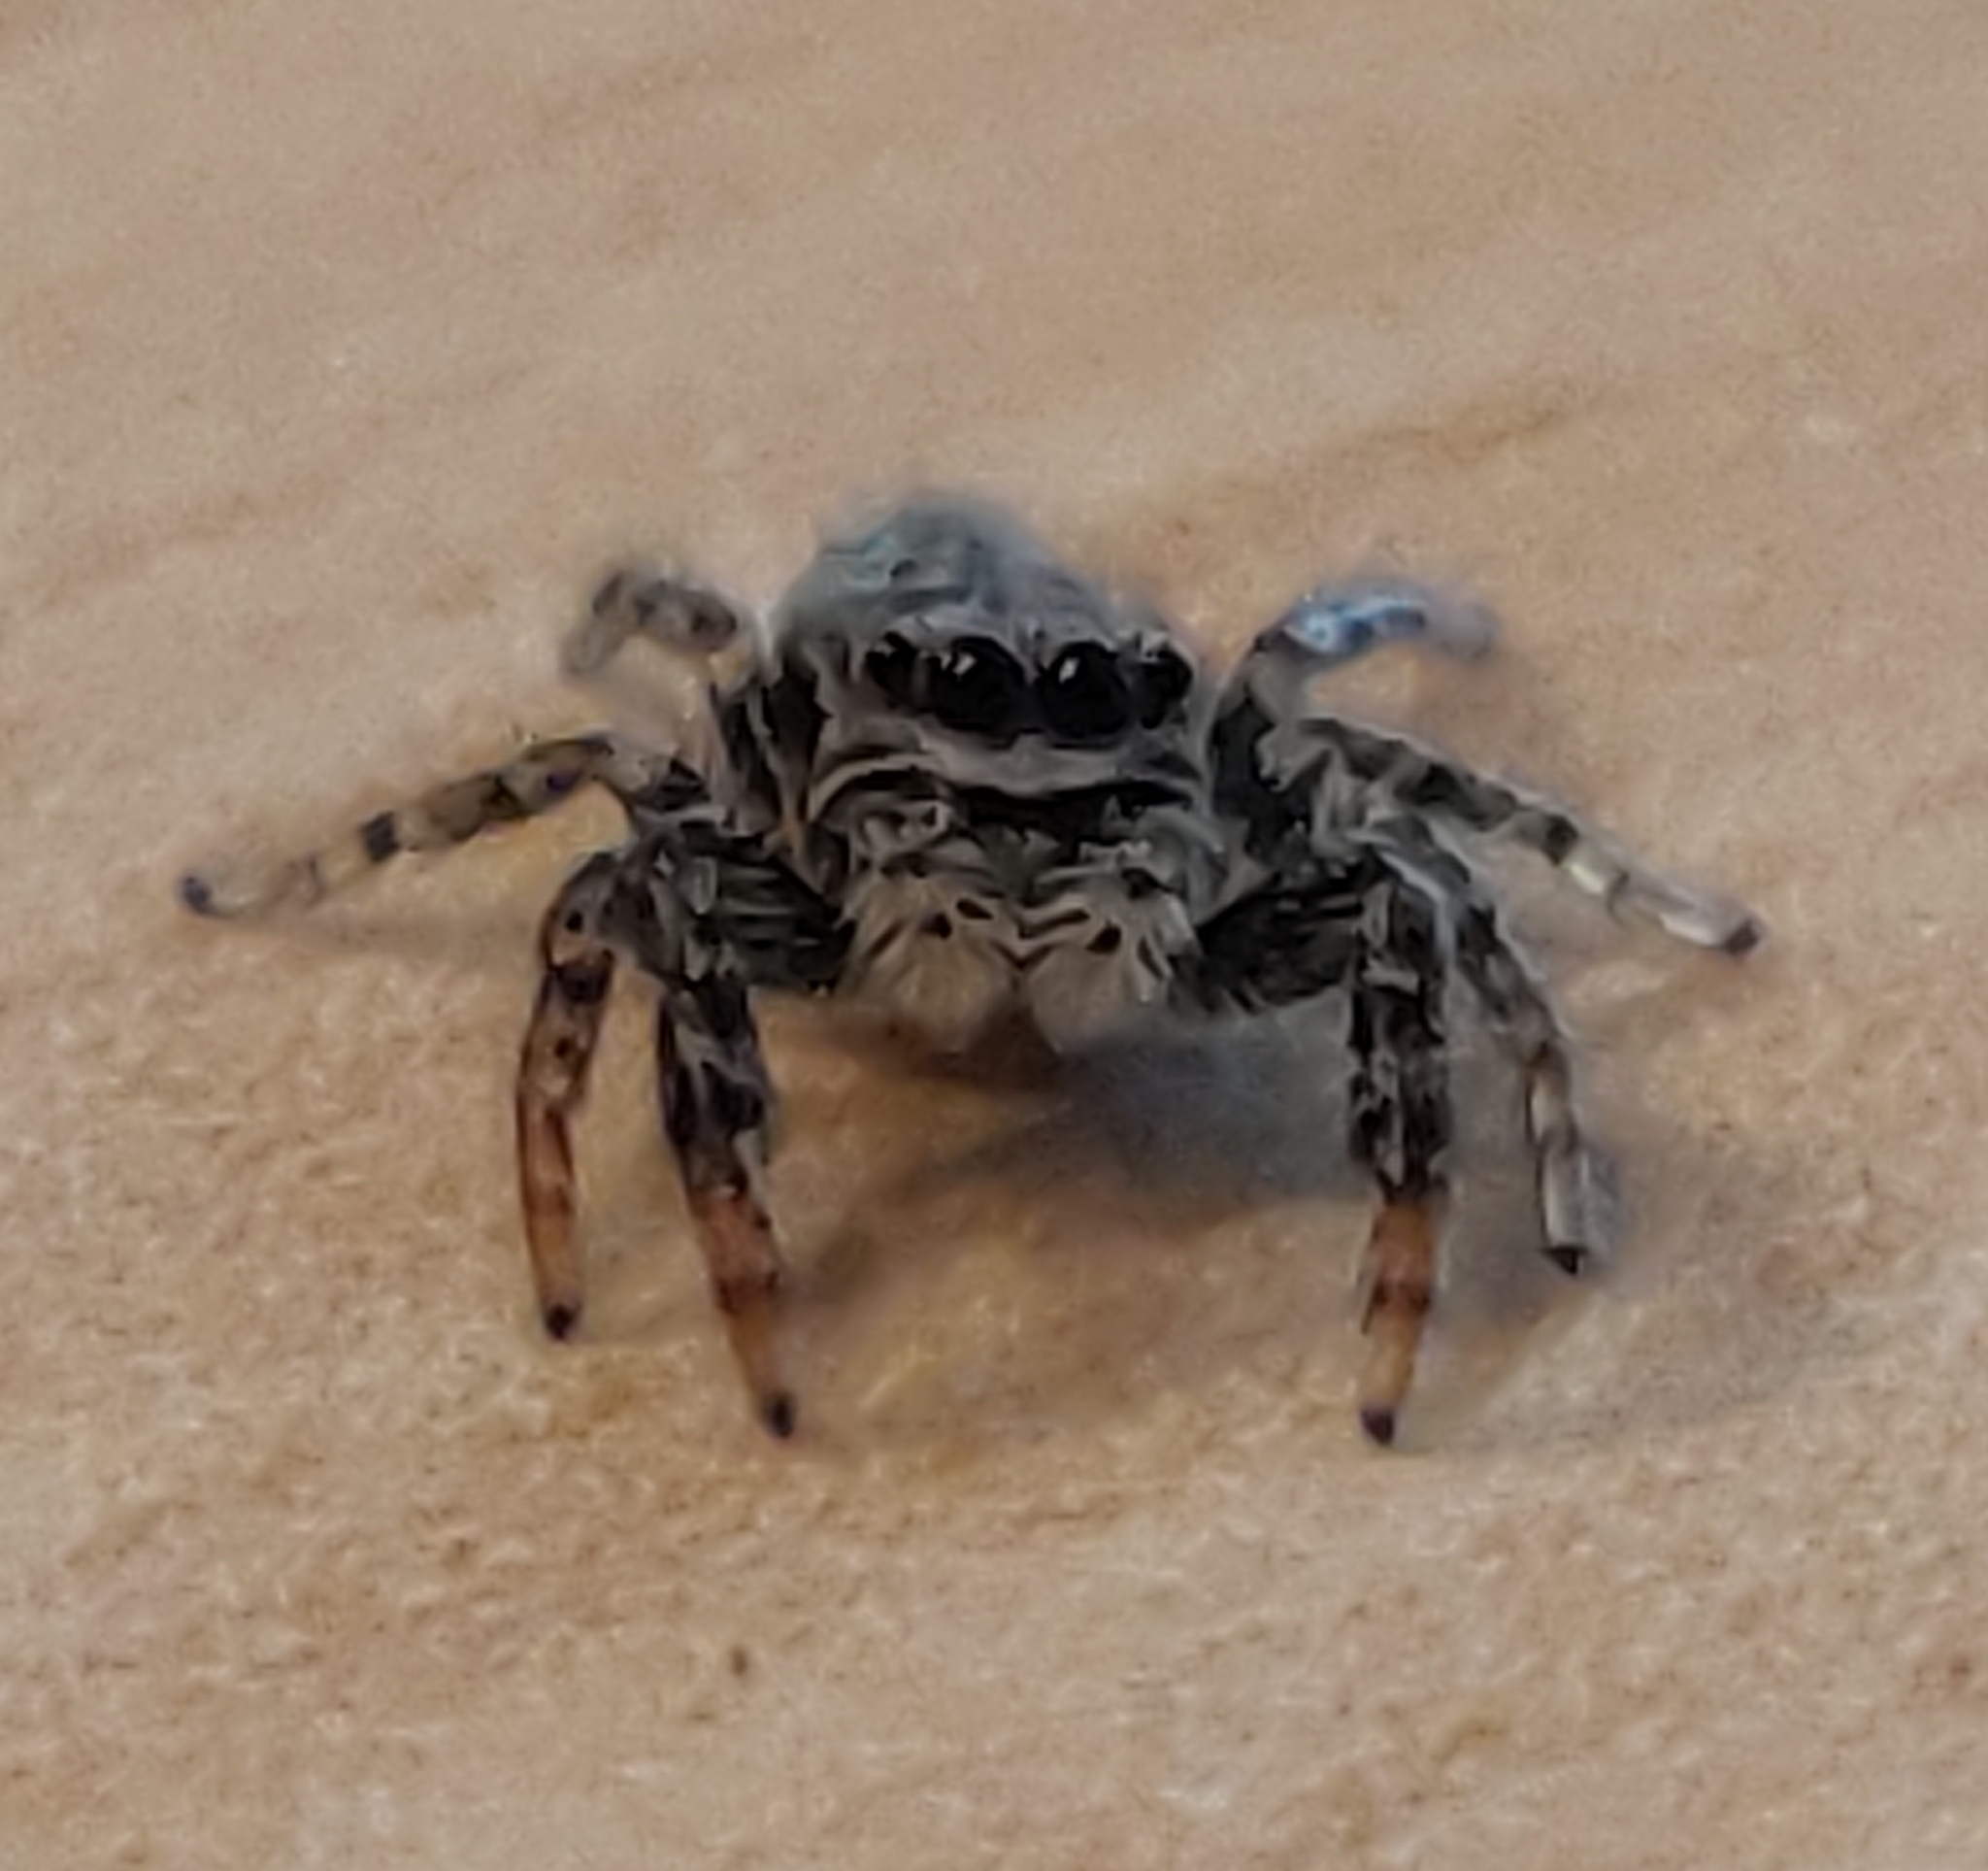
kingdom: Animalia
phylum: Arthropoda
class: Arachnida
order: Araneae
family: Salticidae
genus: Marpissa
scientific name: Marpissa muscosa
